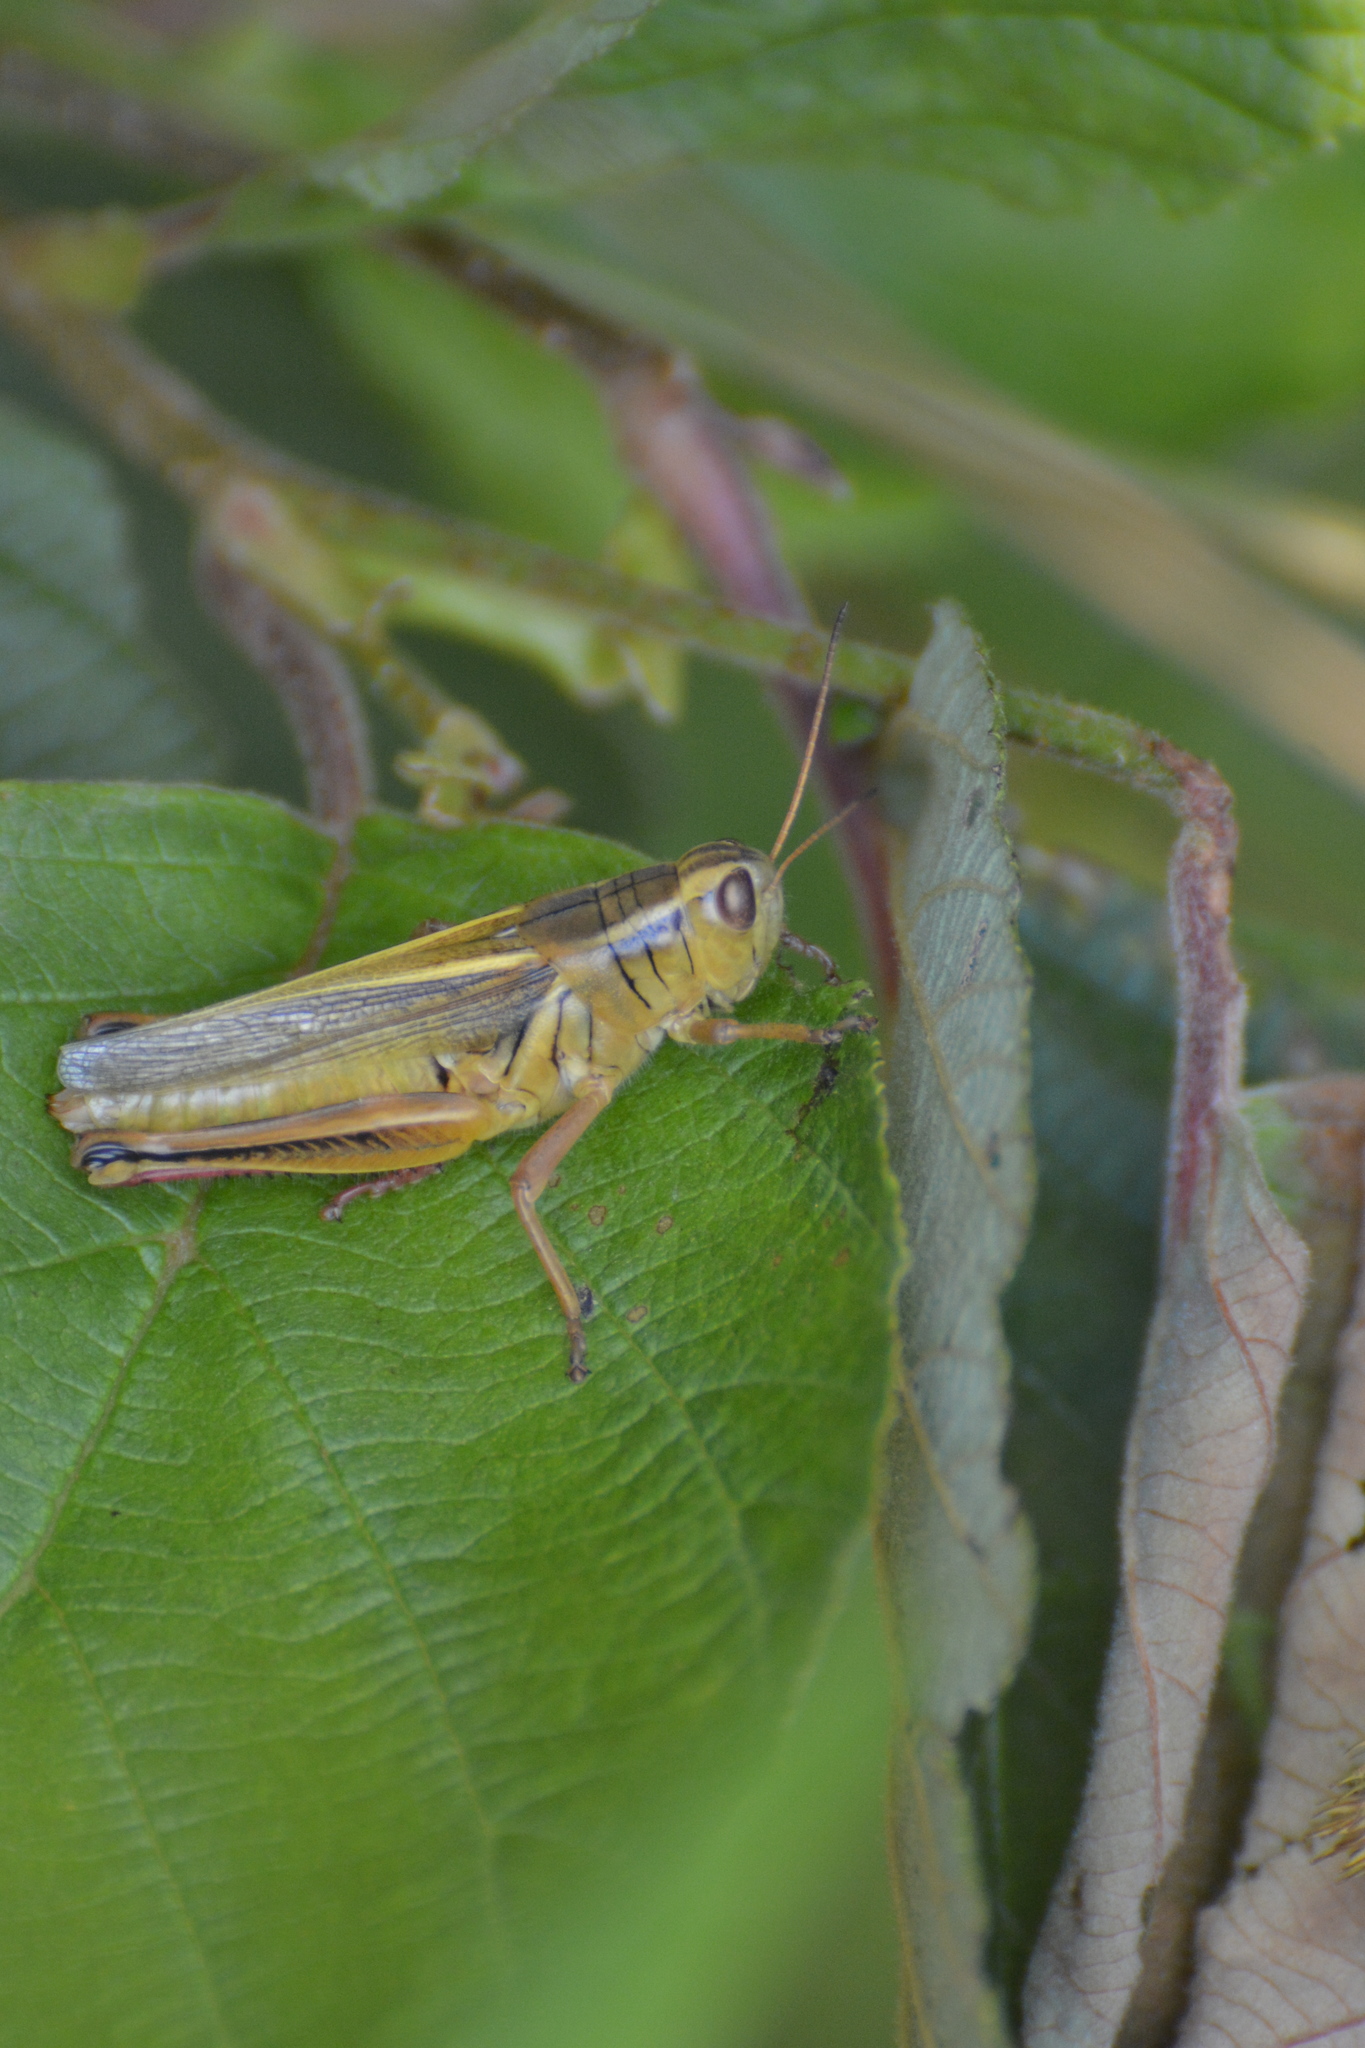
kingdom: Animalia
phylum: Arthropoda
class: Insecta
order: Orthoptera
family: Acrididae
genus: Melanoplus
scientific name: Melanoplus bivittatus
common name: Two-striped grasshopper
